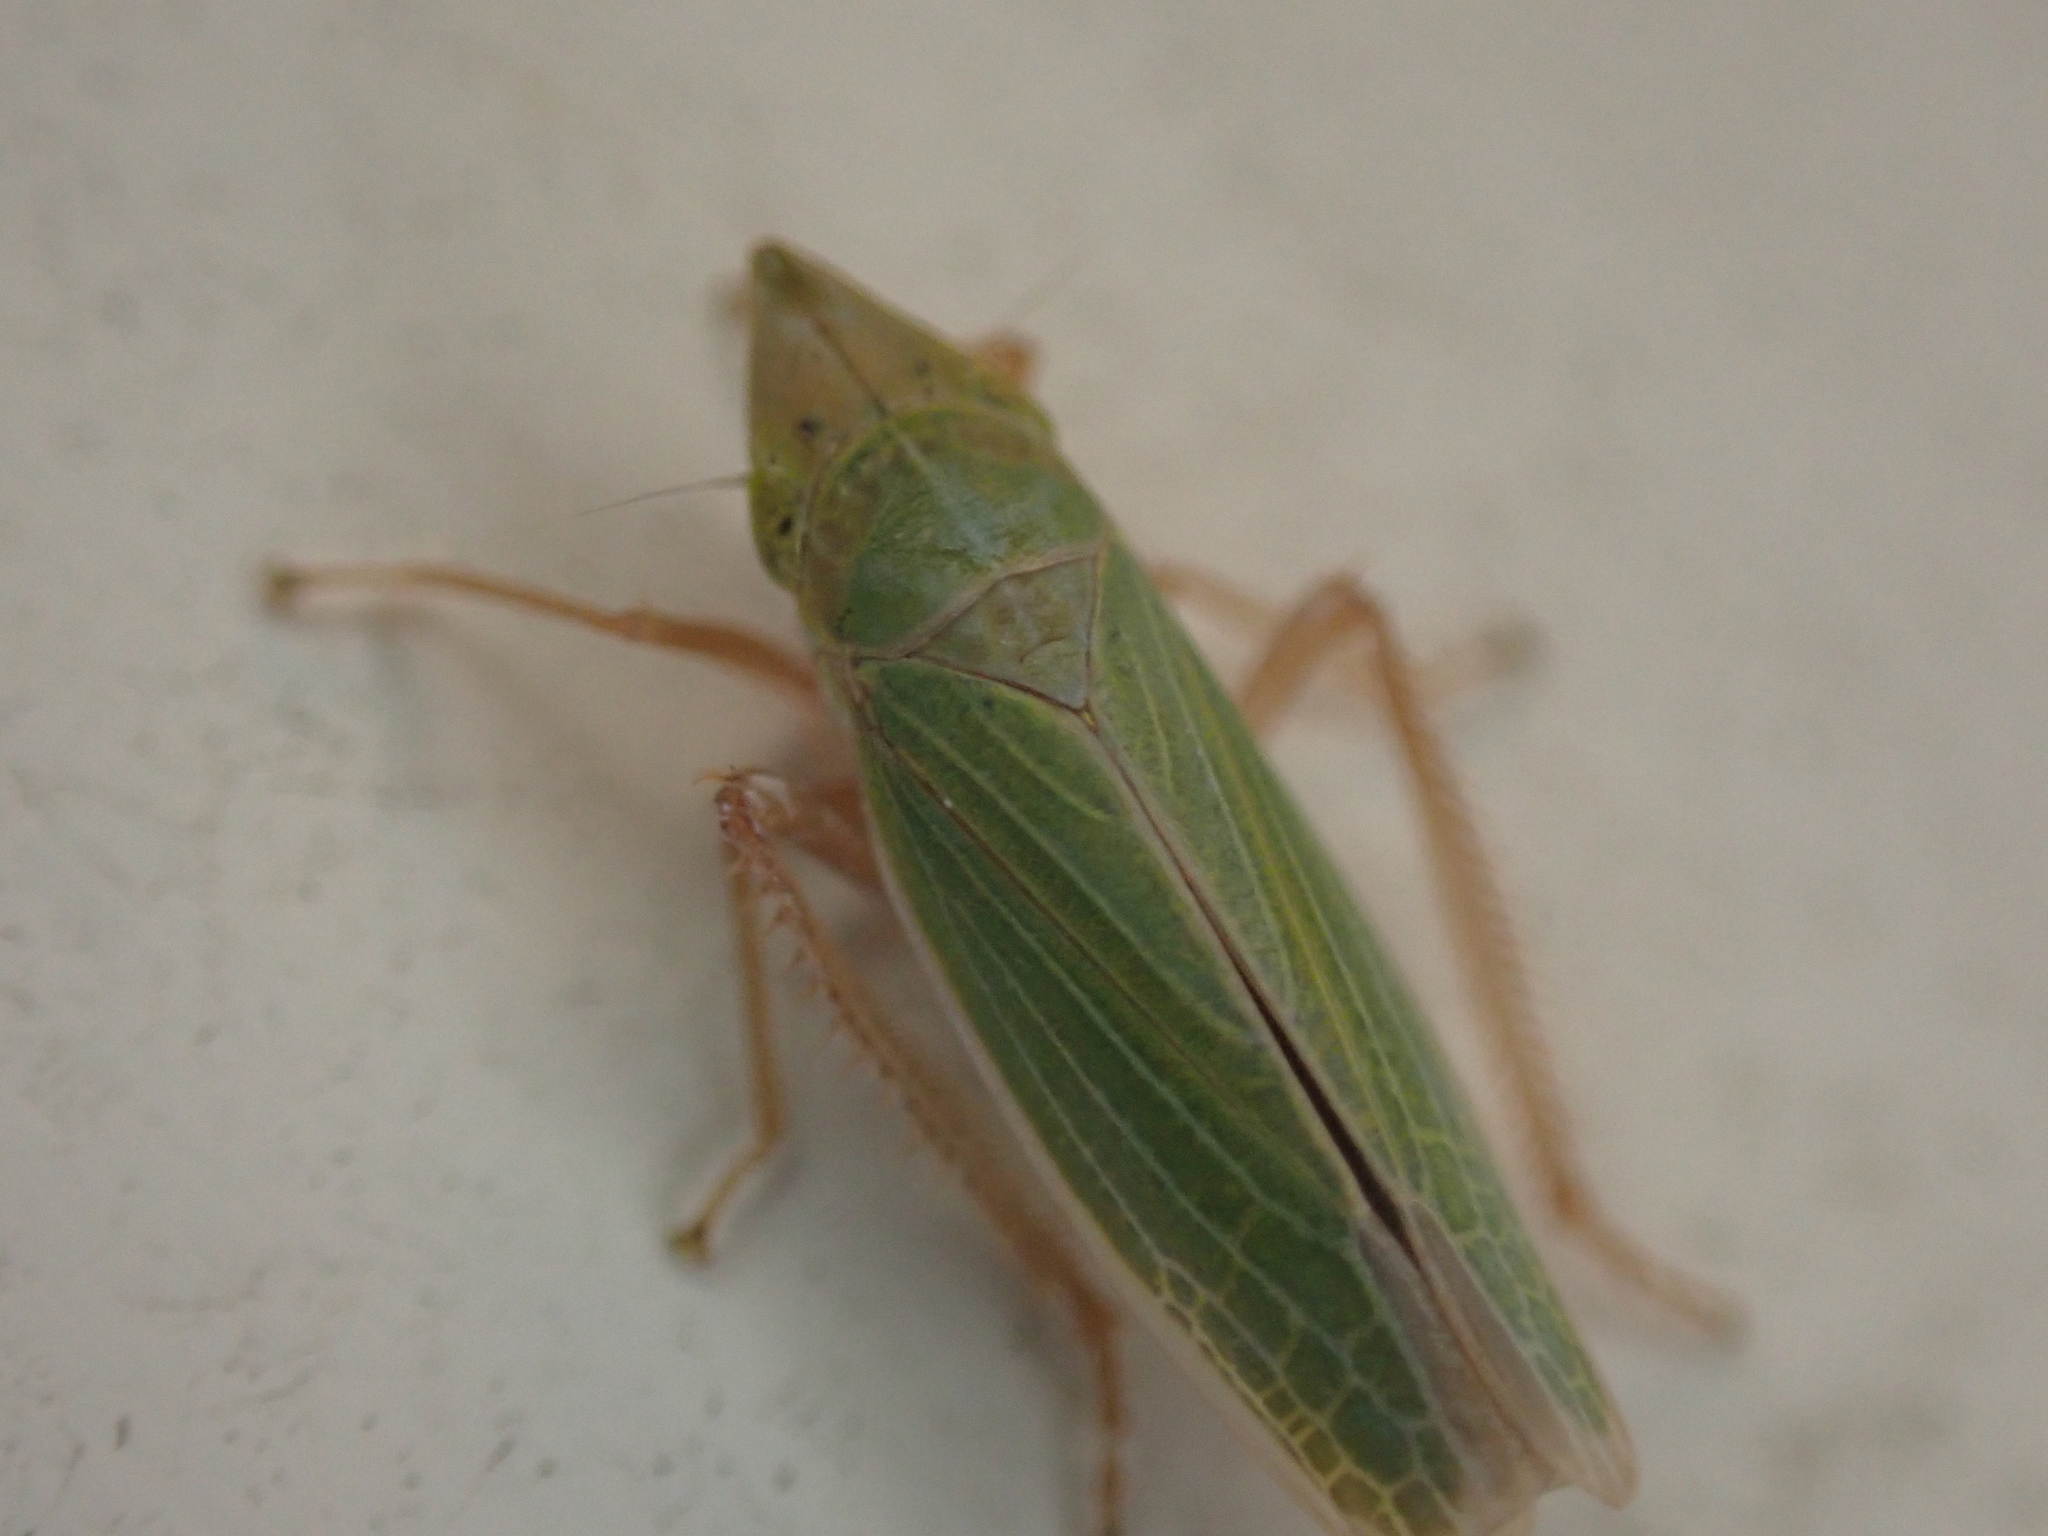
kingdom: Animalia
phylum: Arthropoda
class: Insecta
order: Hemiptera
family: Cicadellidae
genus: Draeculacephala
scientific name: Draeculacephala antica
